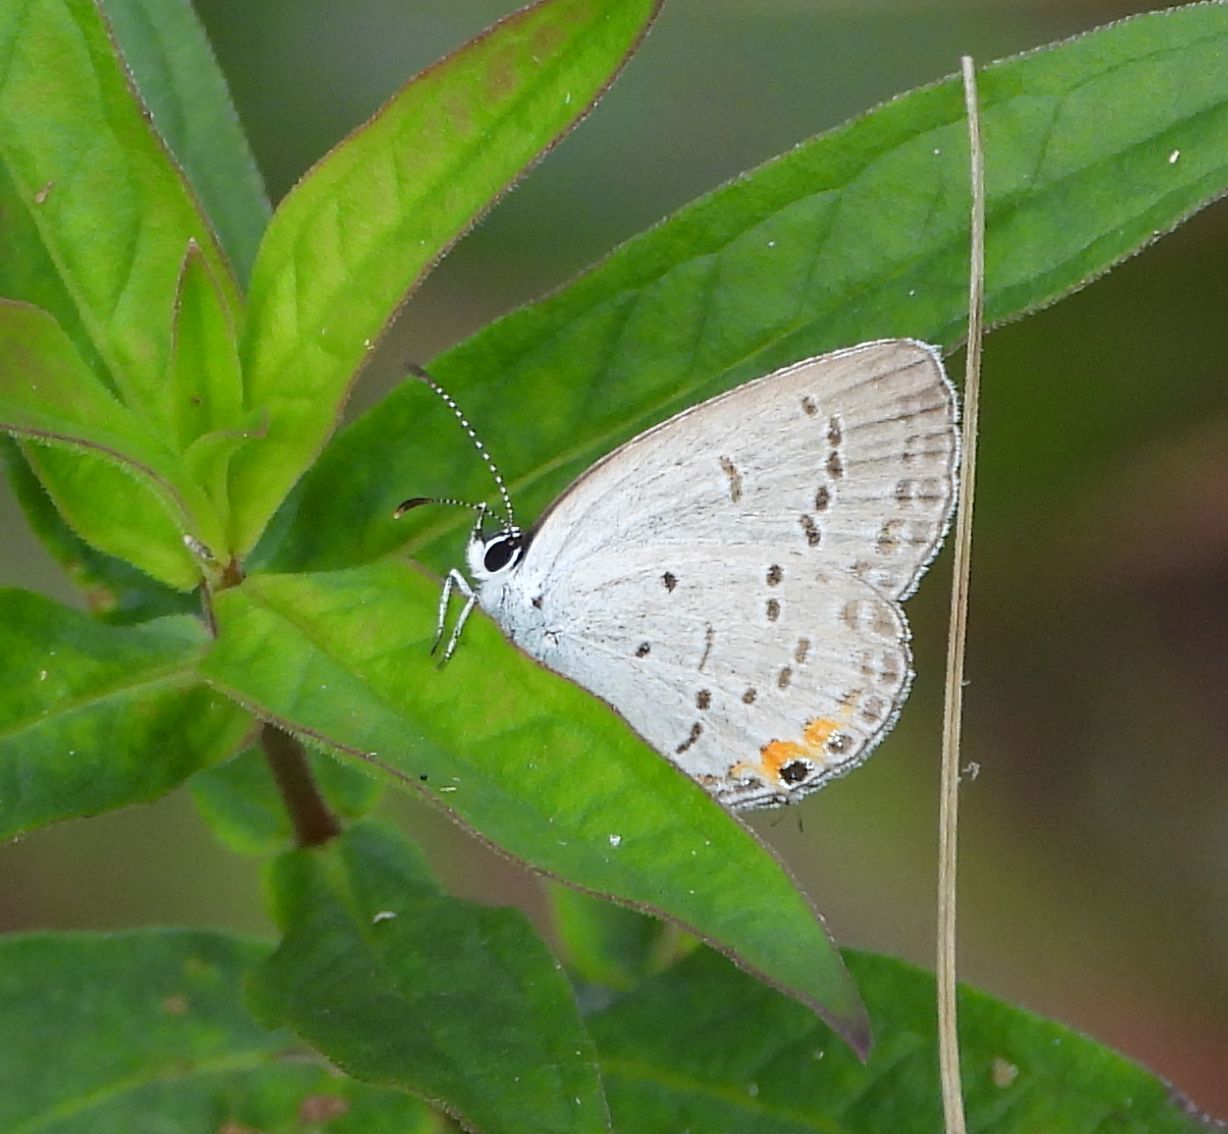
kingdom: Animalia
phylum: Arthropoda
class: Insecta
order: Lepidoptera
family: Lycaenidae
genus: Elkalyce
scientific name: Elkalyce comyntas
